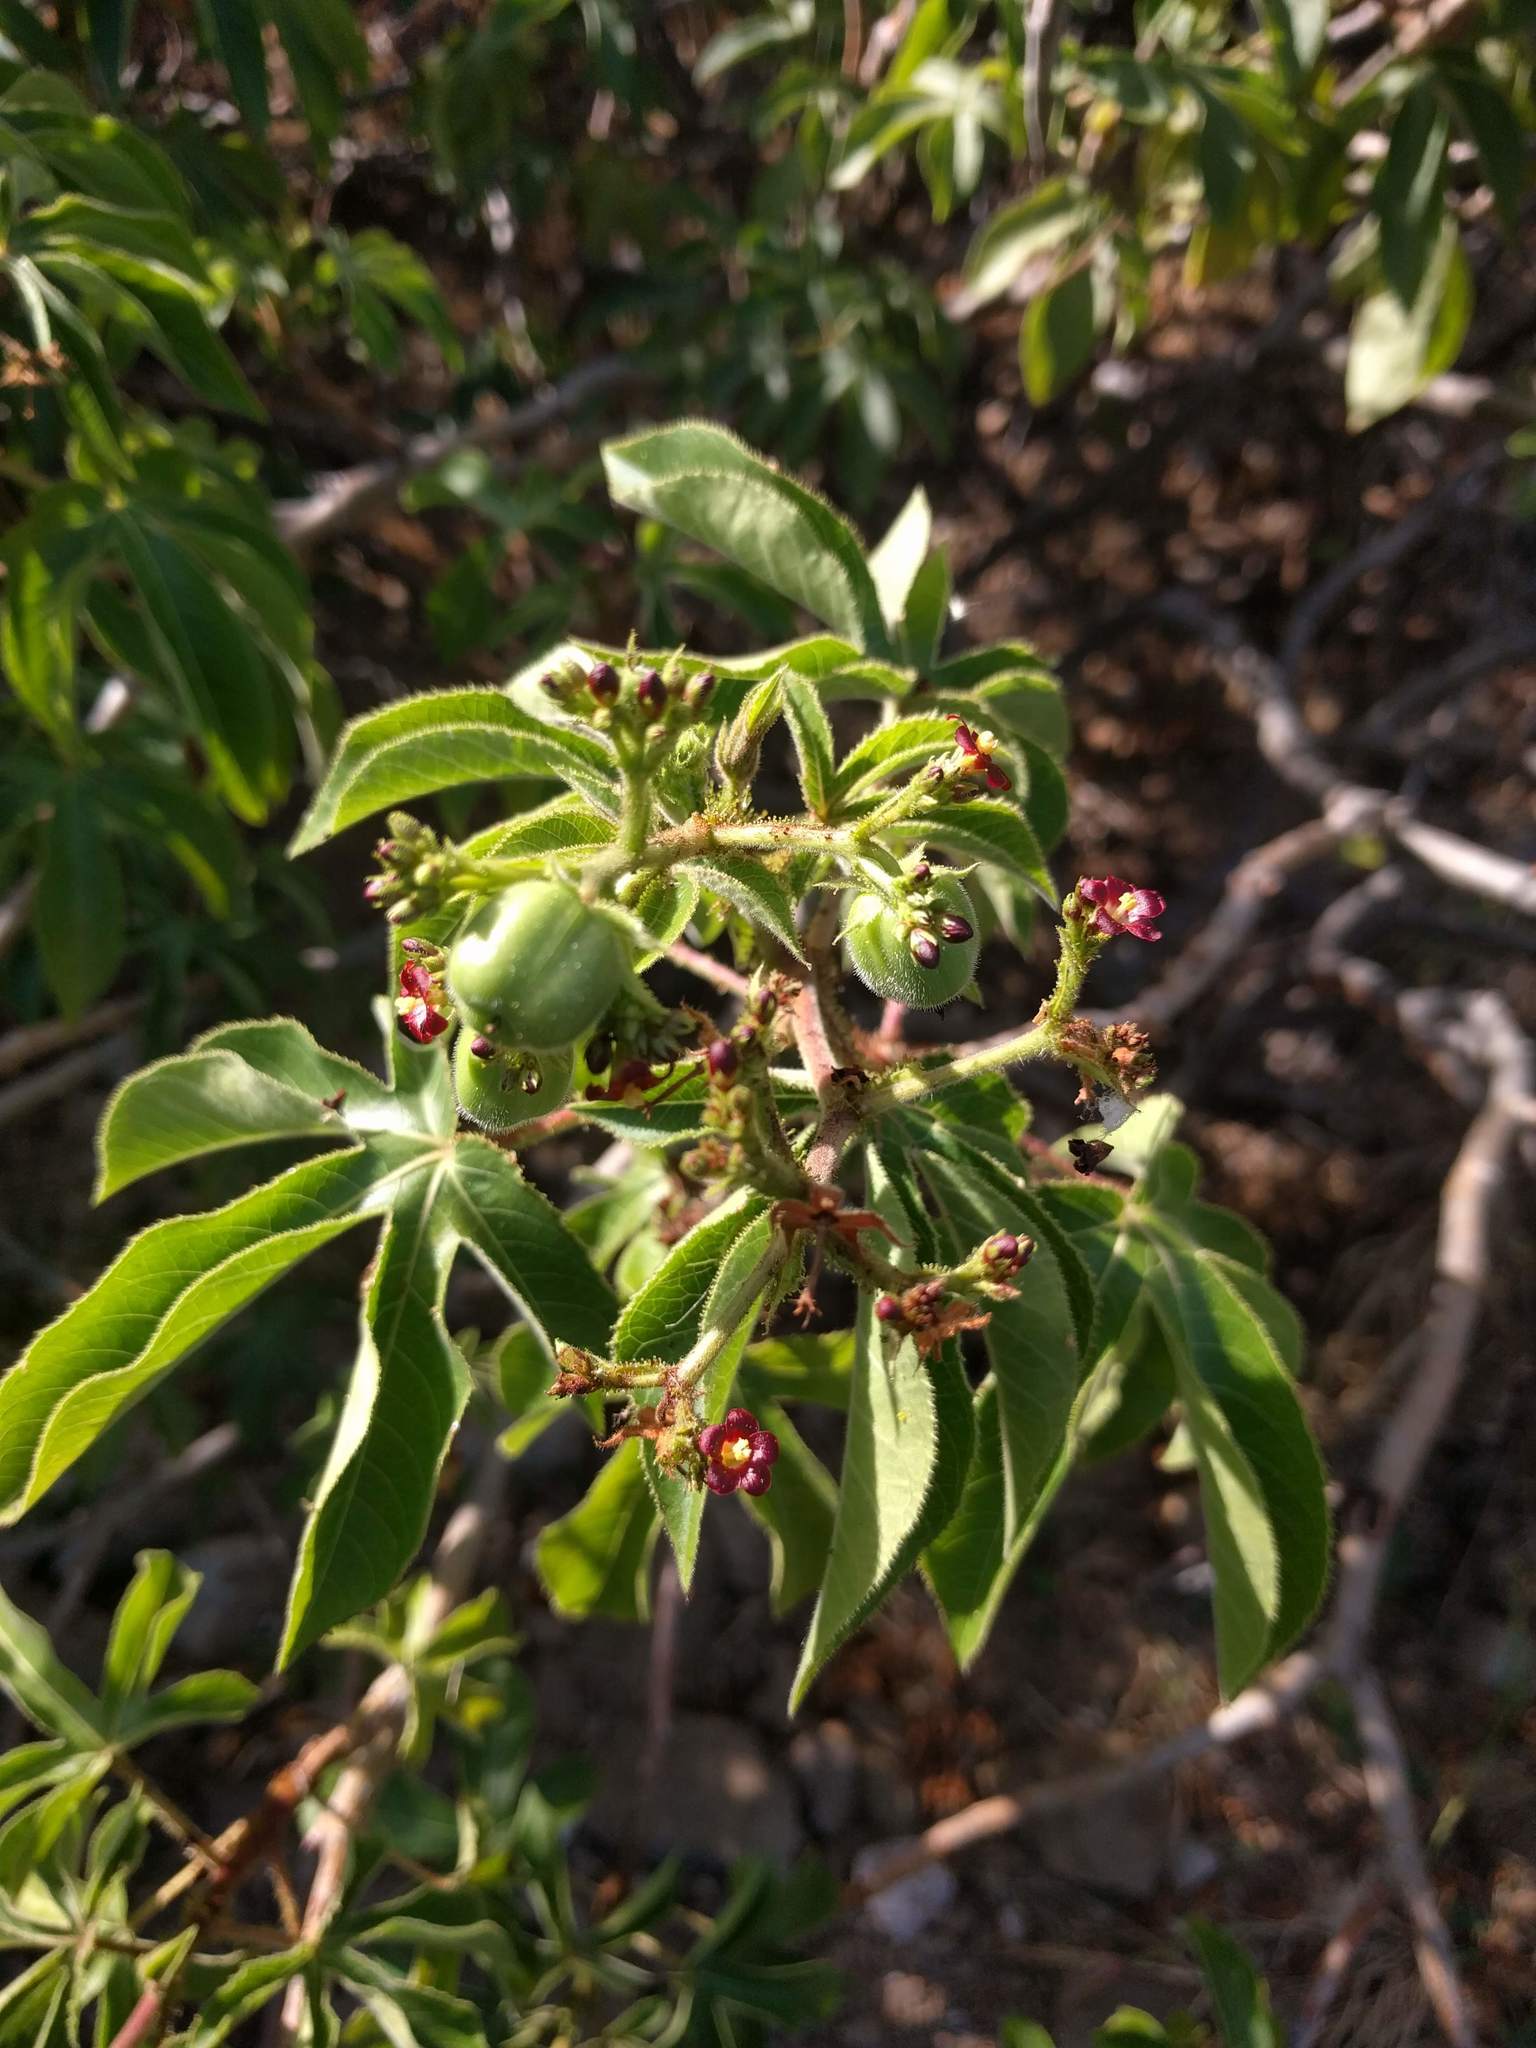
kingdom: Plantae
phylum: Tracheophyta
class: Magnoliopsida
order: Malpighiales
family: Euphorbiaceae
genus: Jatropha
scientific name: Jatropha gossypiifolia
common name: Bellyache bush
